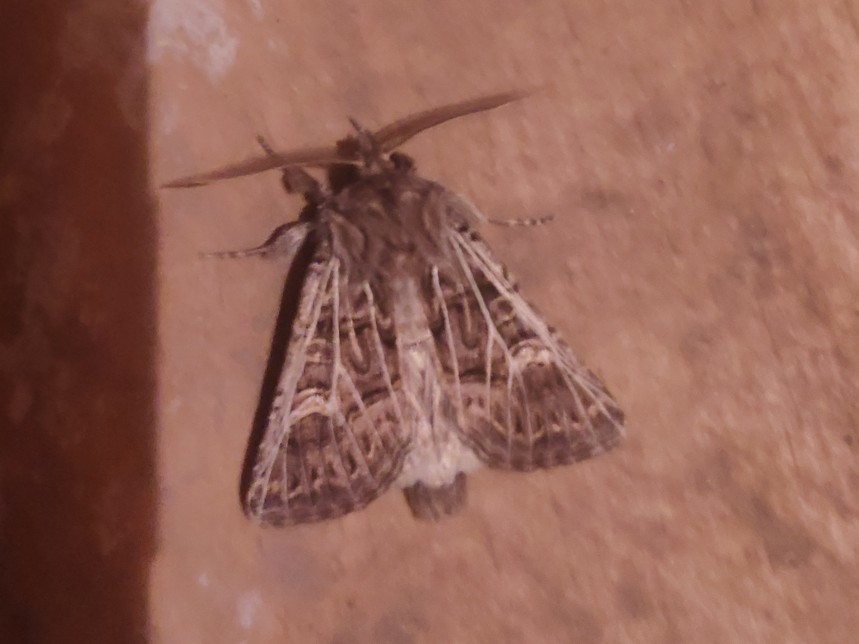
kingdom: Animalia
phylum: Arthropoda
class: Insecta
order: Lepidoptera
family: Noctuidae
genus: Tholera
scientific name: Tholera decimalis
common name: Feathered gothic
